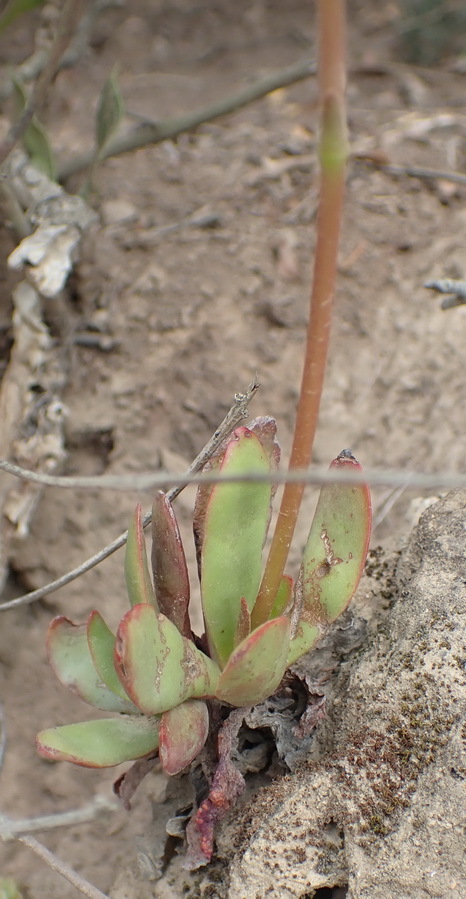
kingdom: Plantae
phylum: Tracheophyta
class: Magnoliopsida
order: Saxifragales
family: Crassulaceae
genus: Crassula
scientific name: Crassula atropurpurea
